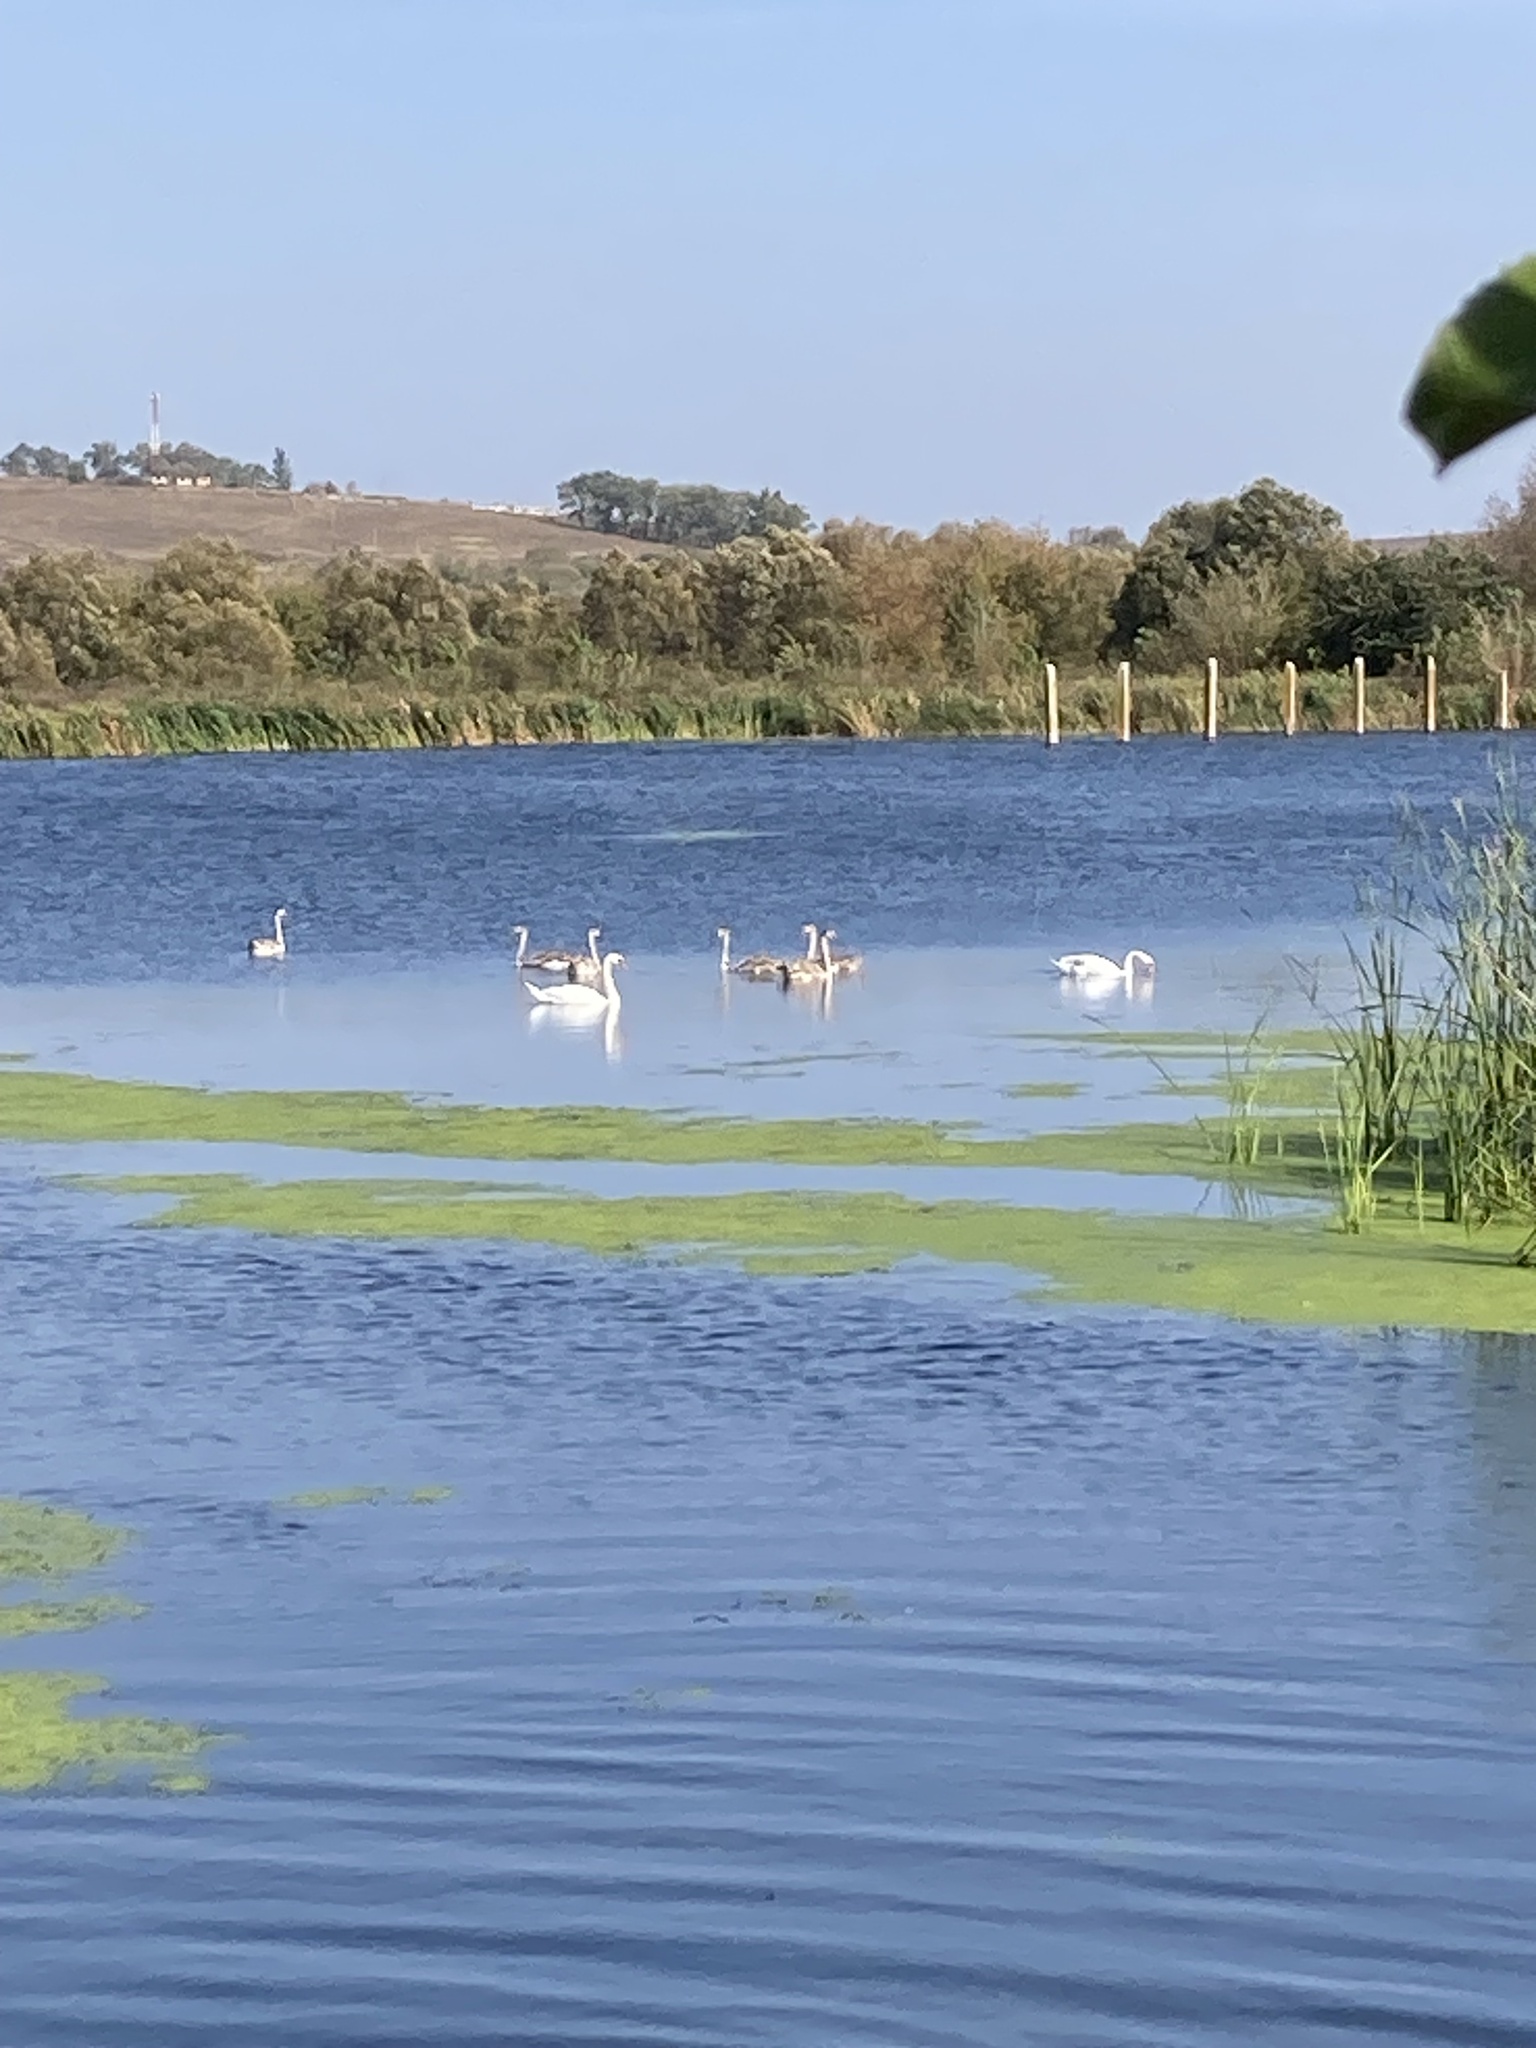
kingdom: Animalia
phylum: Chordata
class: Aves
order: Anseriformes
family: Anatidae
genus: Cygnus
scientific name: Cygnus olor
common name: Mute swan
